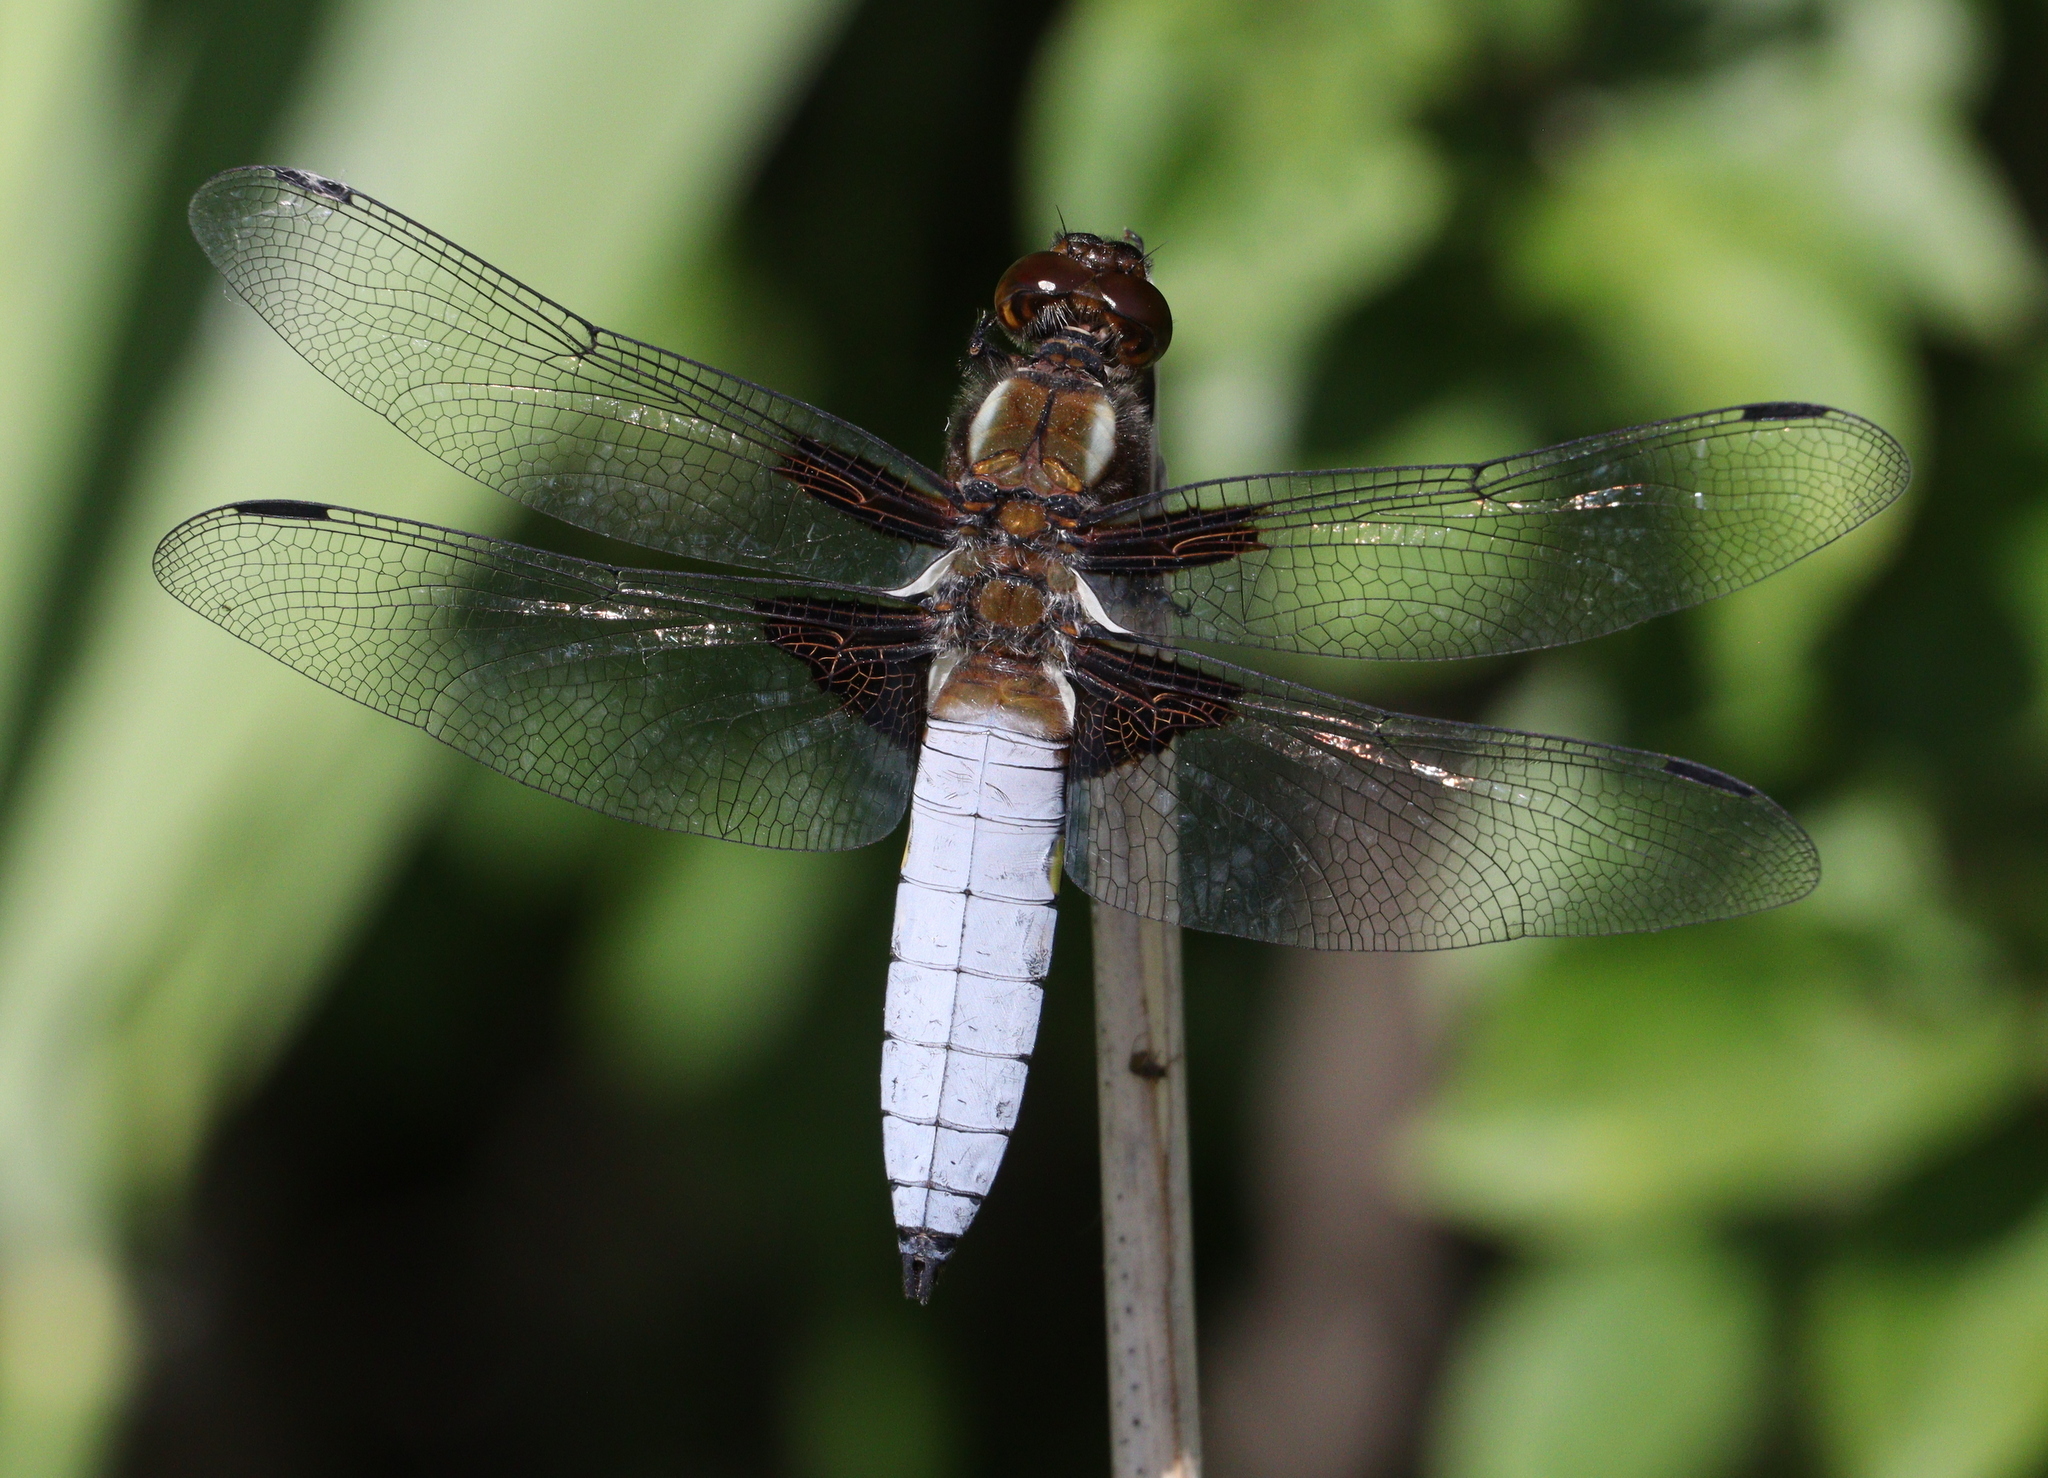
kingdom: Animalia
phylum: Arthropoda
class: Insecta
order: Odonata
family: Libellulidae
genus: Libellula
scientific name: Libellula depressa
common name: Broad-bodied chaser
